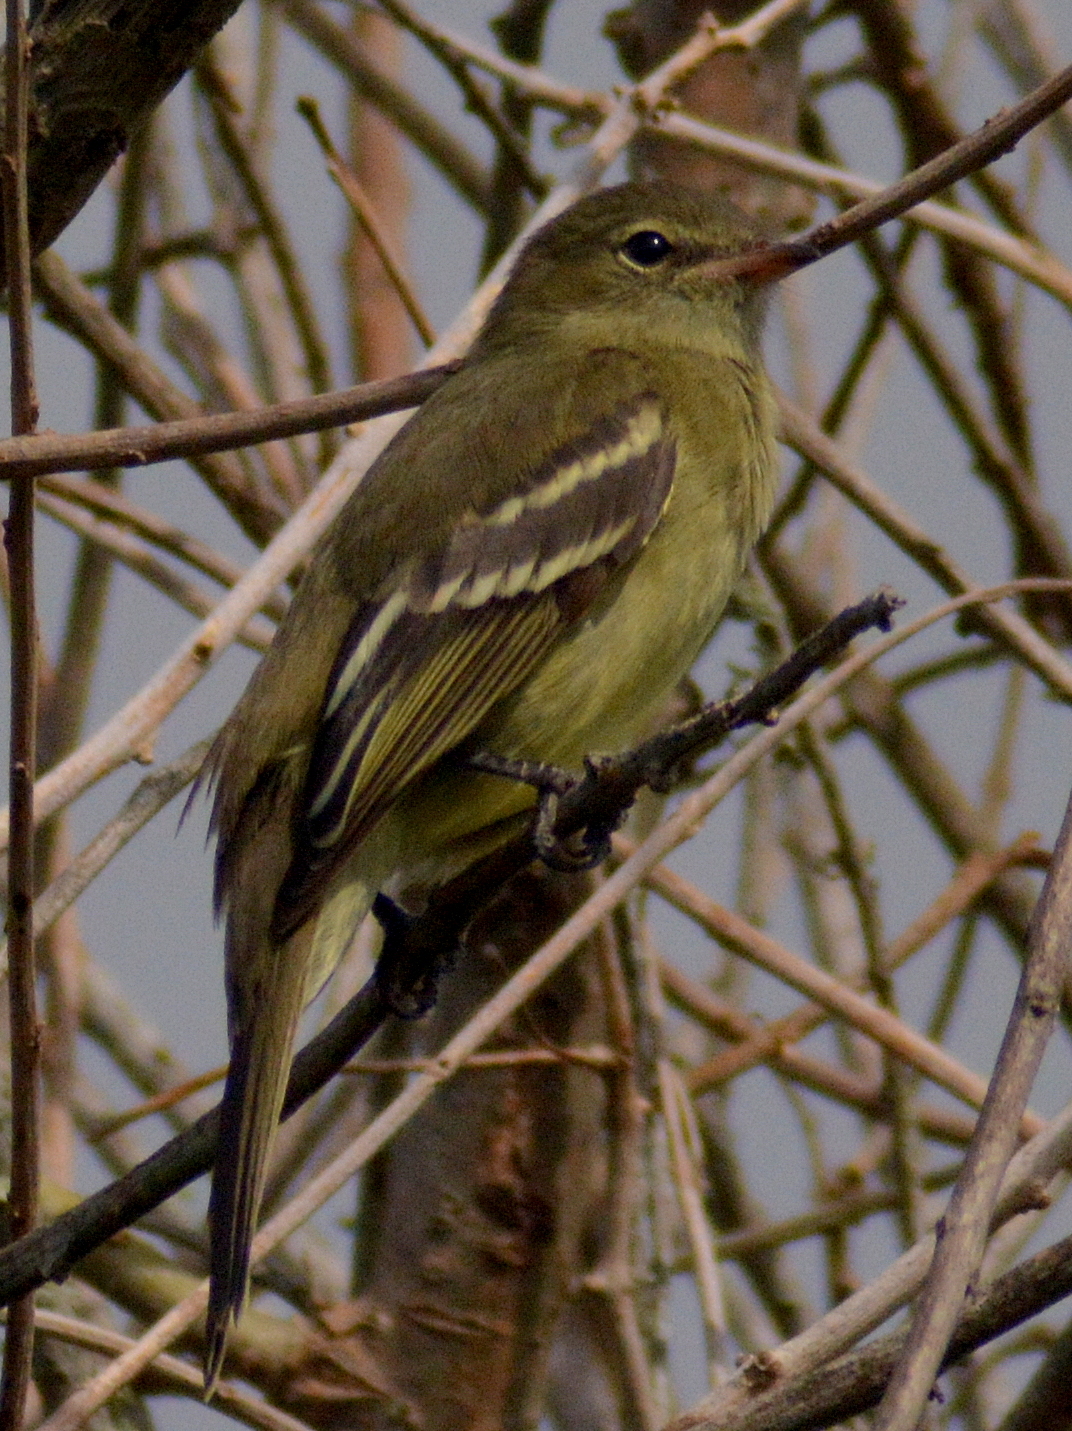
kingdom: Animalia
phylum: Chordata
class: Aves
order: Passeriformes
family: Tyrannidae
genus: Elaenia
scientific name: Elaenia sordida
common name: Small-headed elaenia
